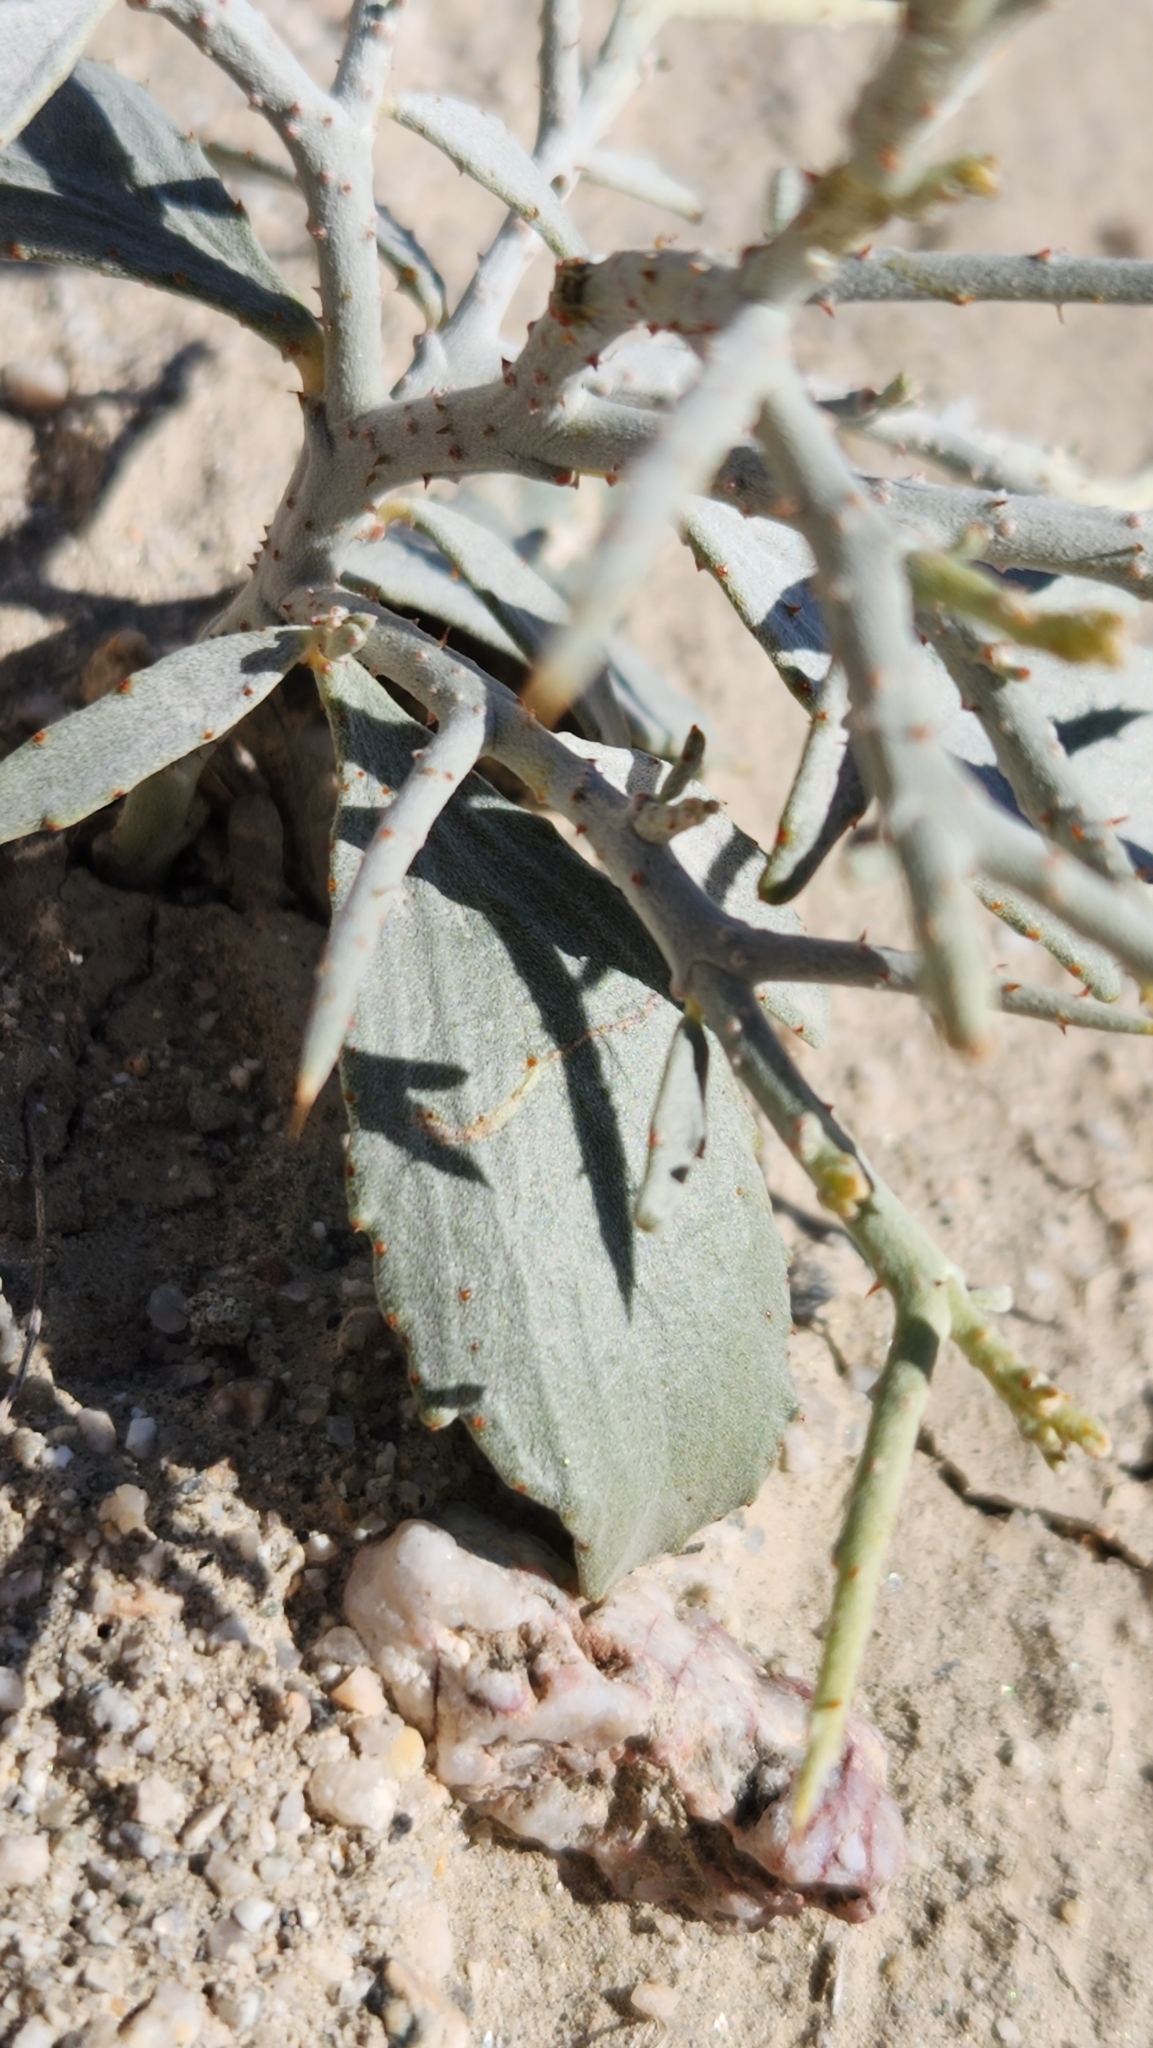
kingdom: Plantae
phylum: Tracheophyta
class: Magnoliopsida
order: Fabales
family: Fabaceae
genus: Psorothamnus
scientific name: Psorothamnus spinosus
